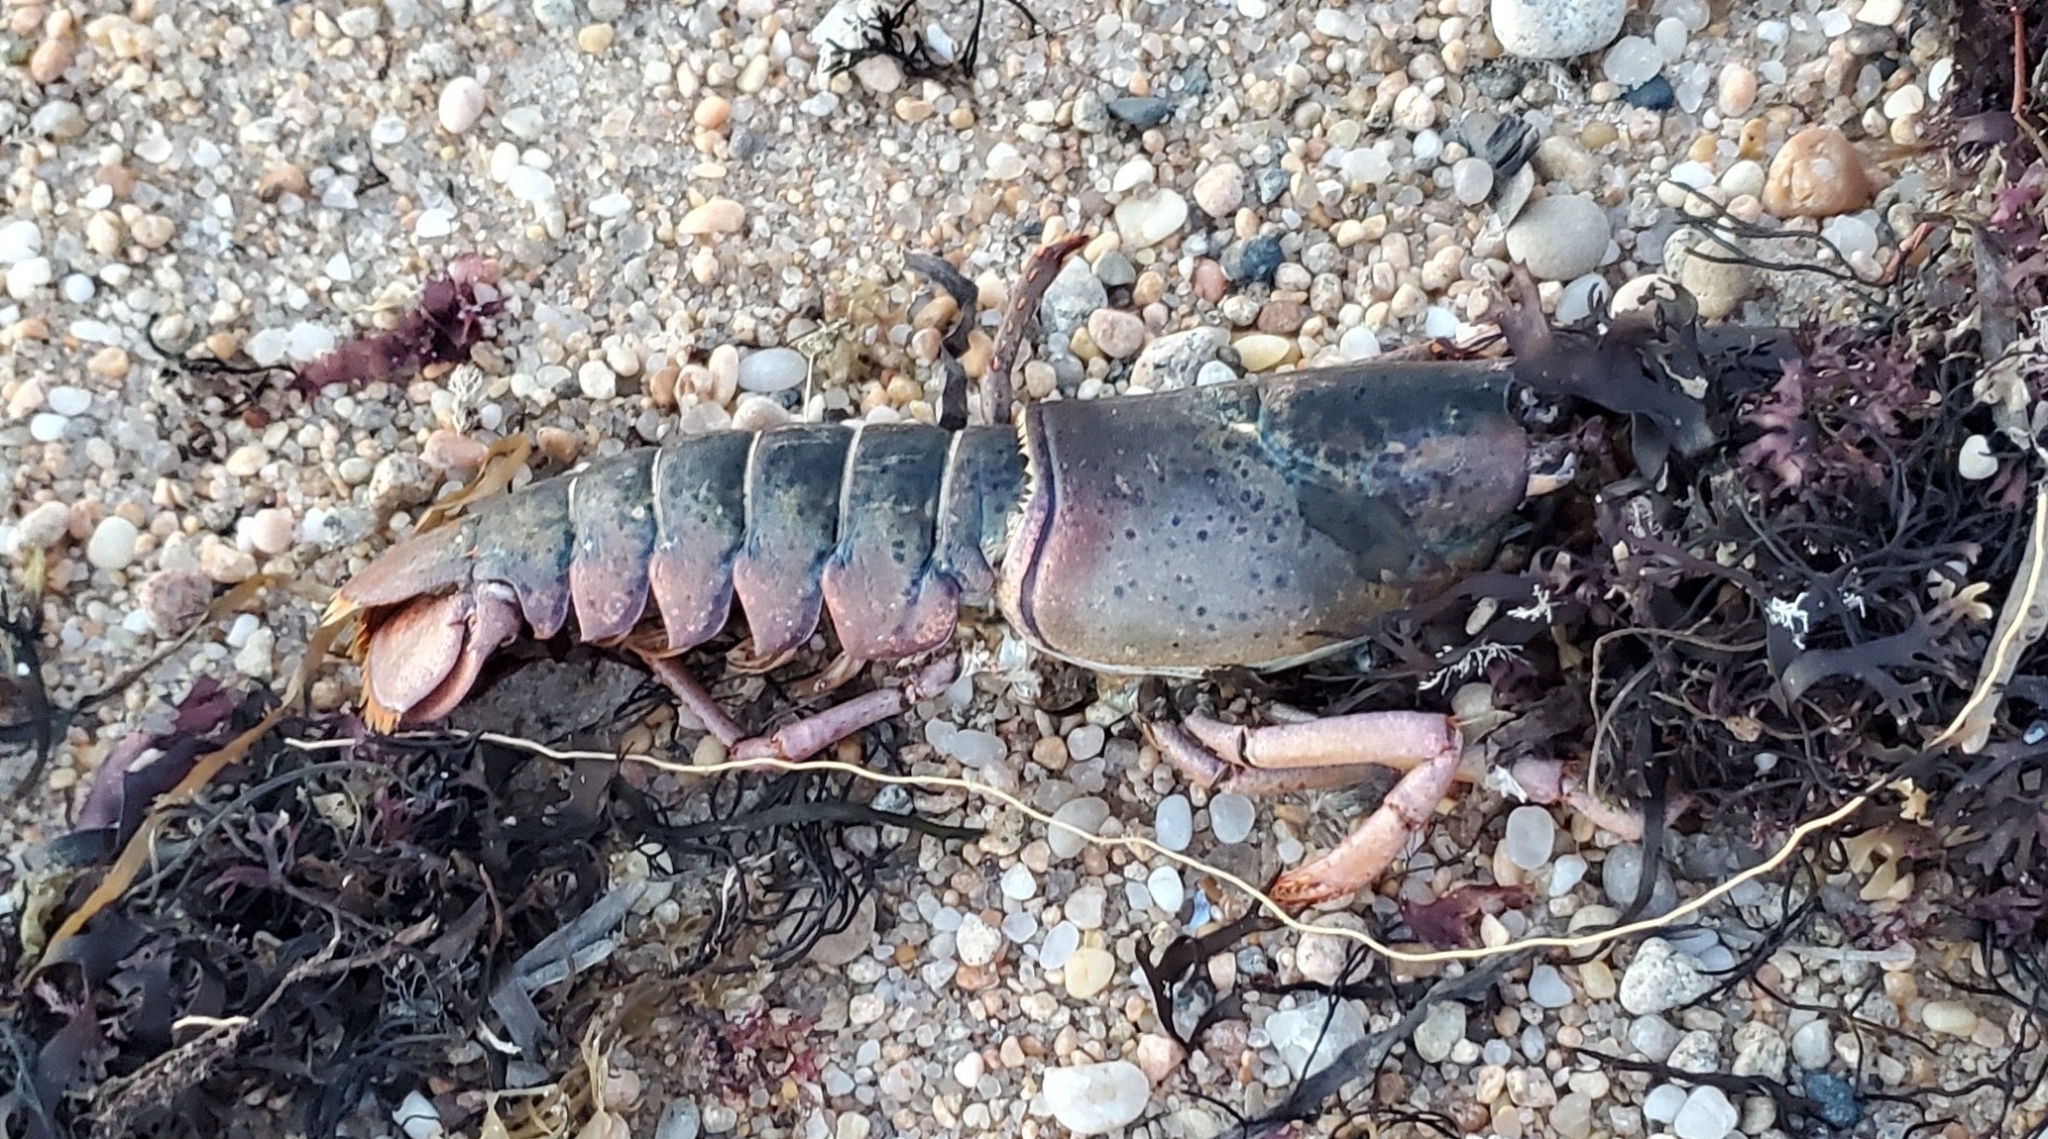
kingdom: Animalia
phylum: Arthropoda
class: Malacostraca
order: Decapoda
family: Nephropidae
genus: Homarus
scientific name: Homarus americanus
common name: American lobster
